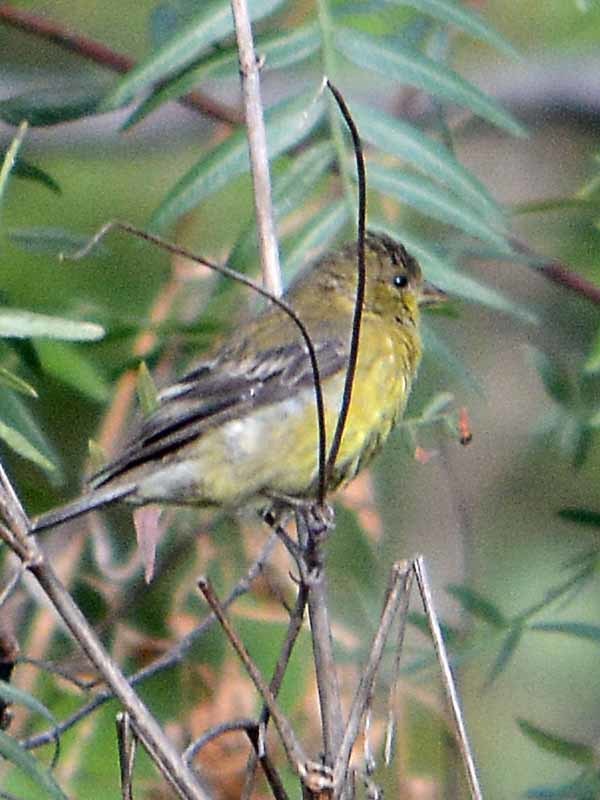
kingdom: Animalia
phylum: Chordata
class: Aves
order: Passeriformes
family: Fringillidae
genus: Spinus
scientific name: Spinus psaltria
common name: Lesser goldfinch
